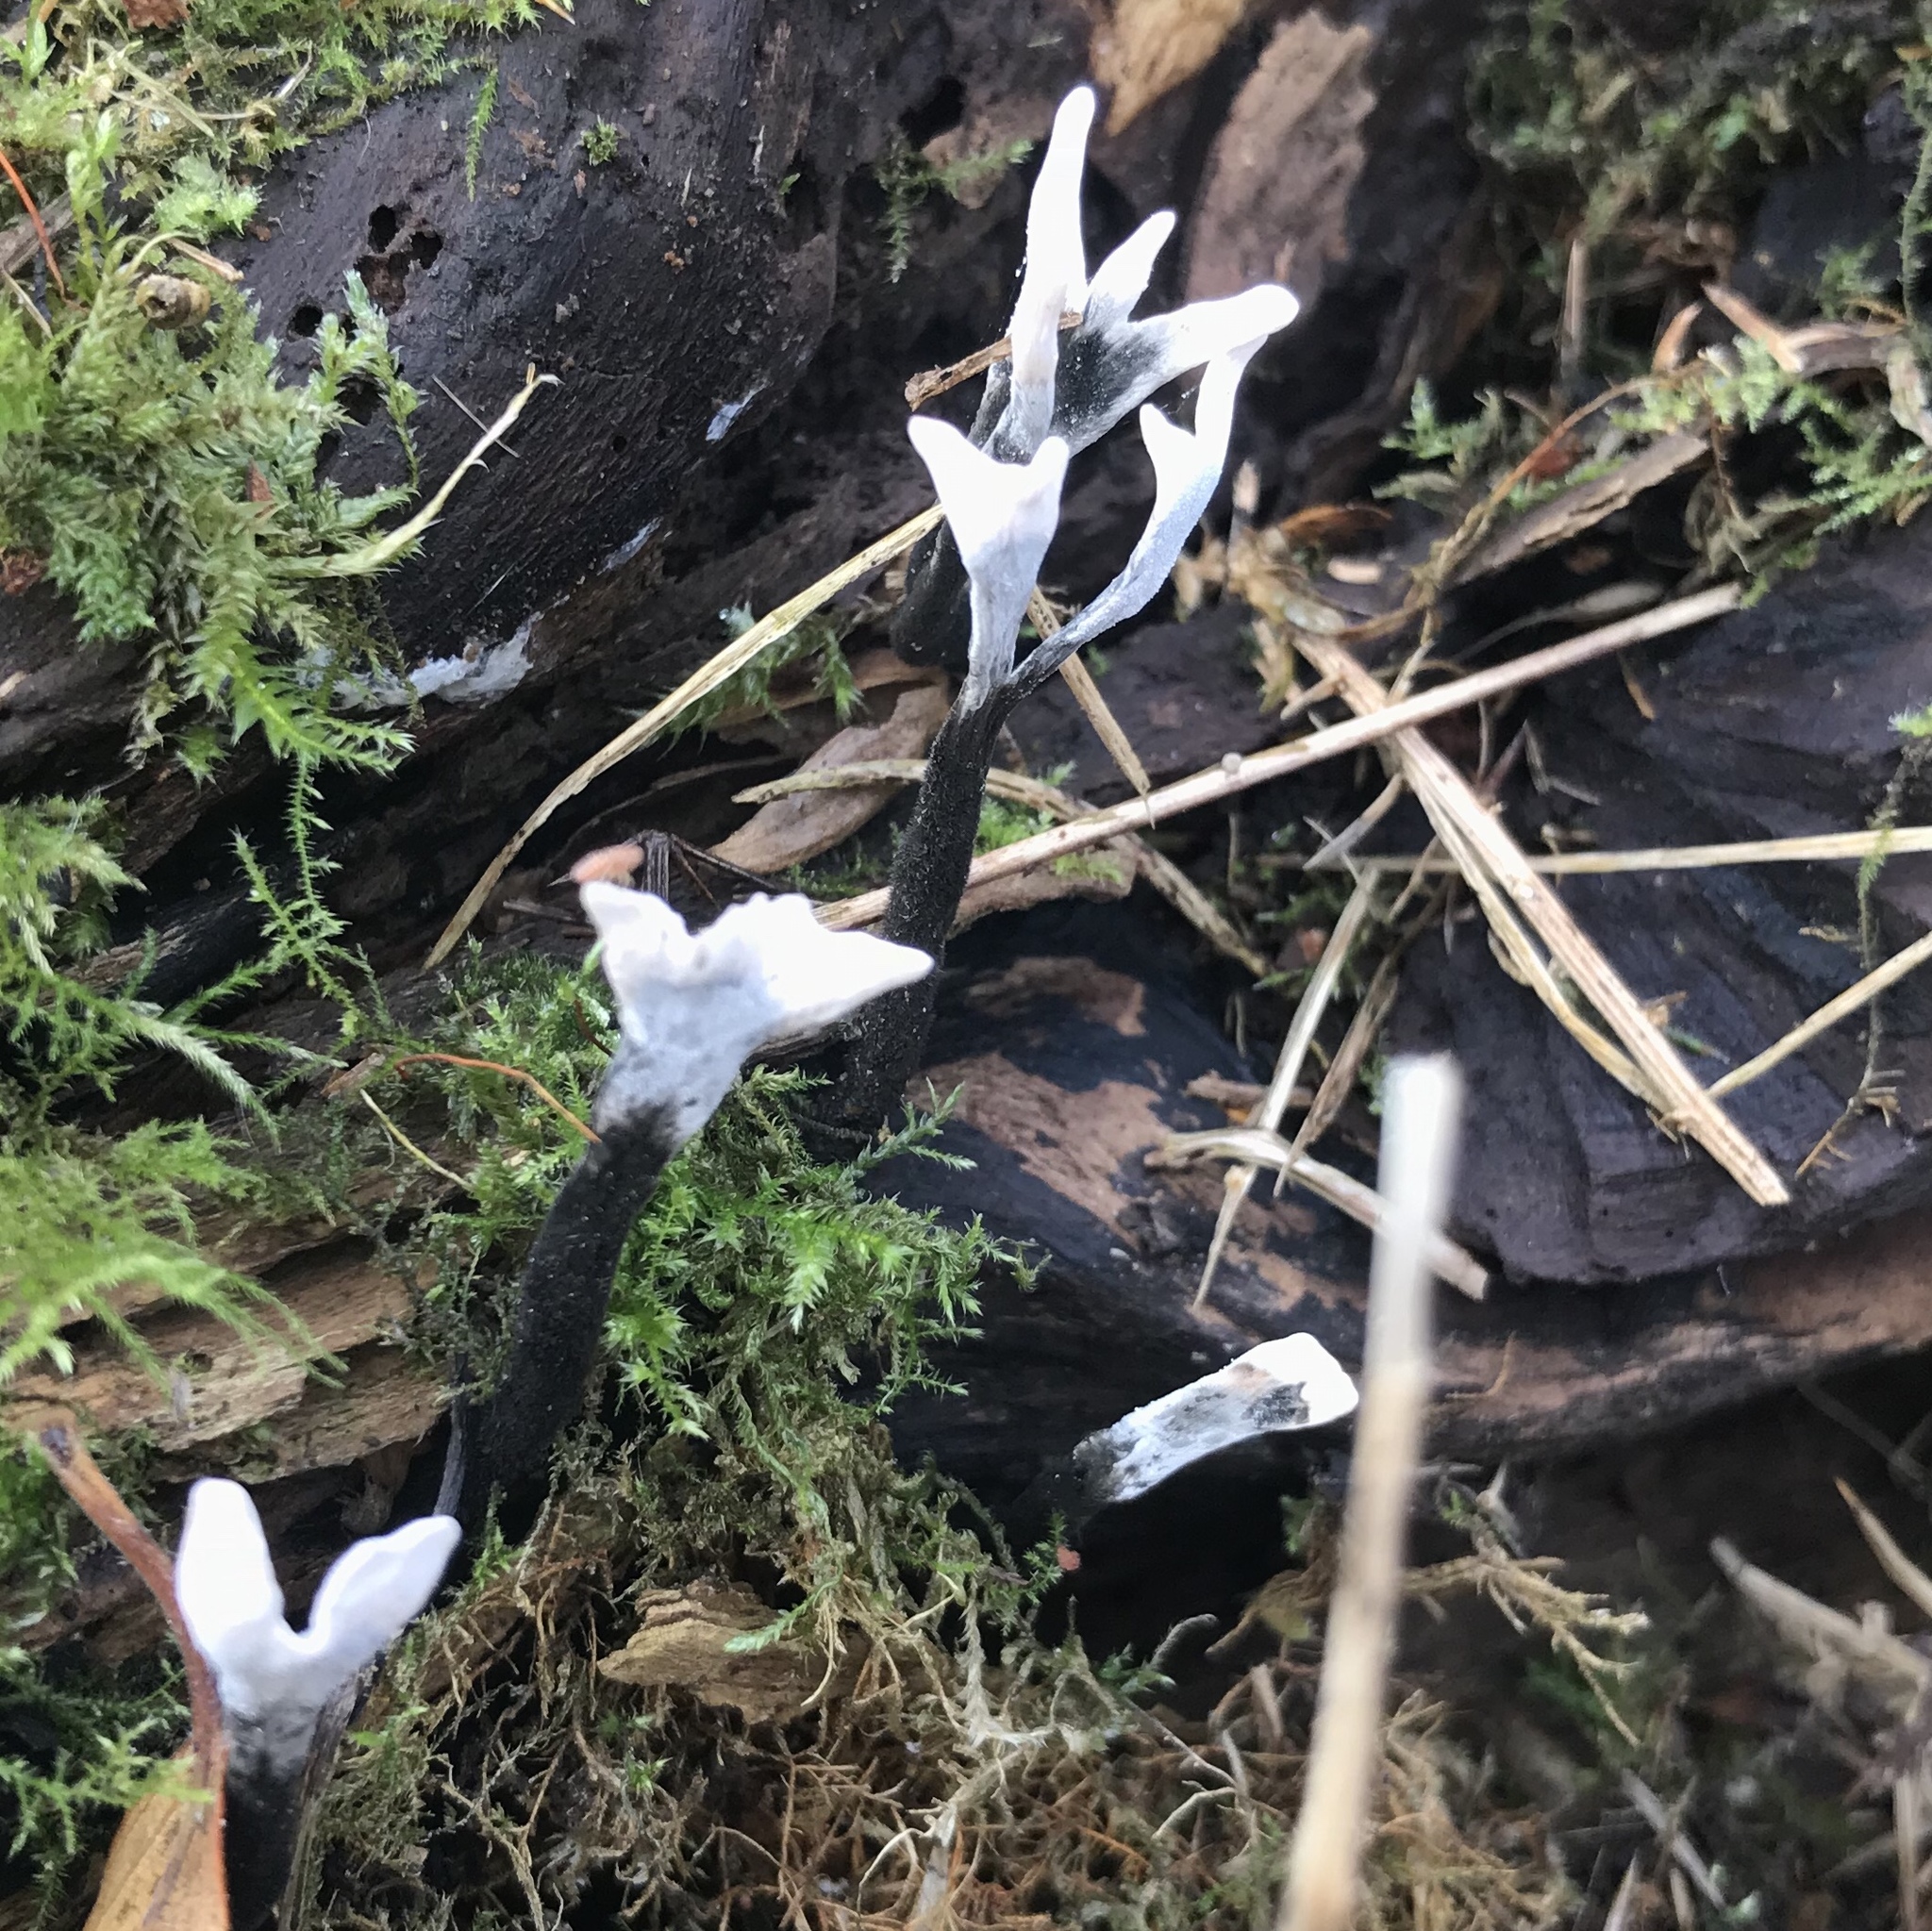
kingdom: Fungi
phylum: Ascomycota
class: Sordariomycetes
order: Xylariales
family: Xylariaceae
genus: Xylaria
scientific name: Xylaria hypoxylon
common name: Candle-snuff fungus
